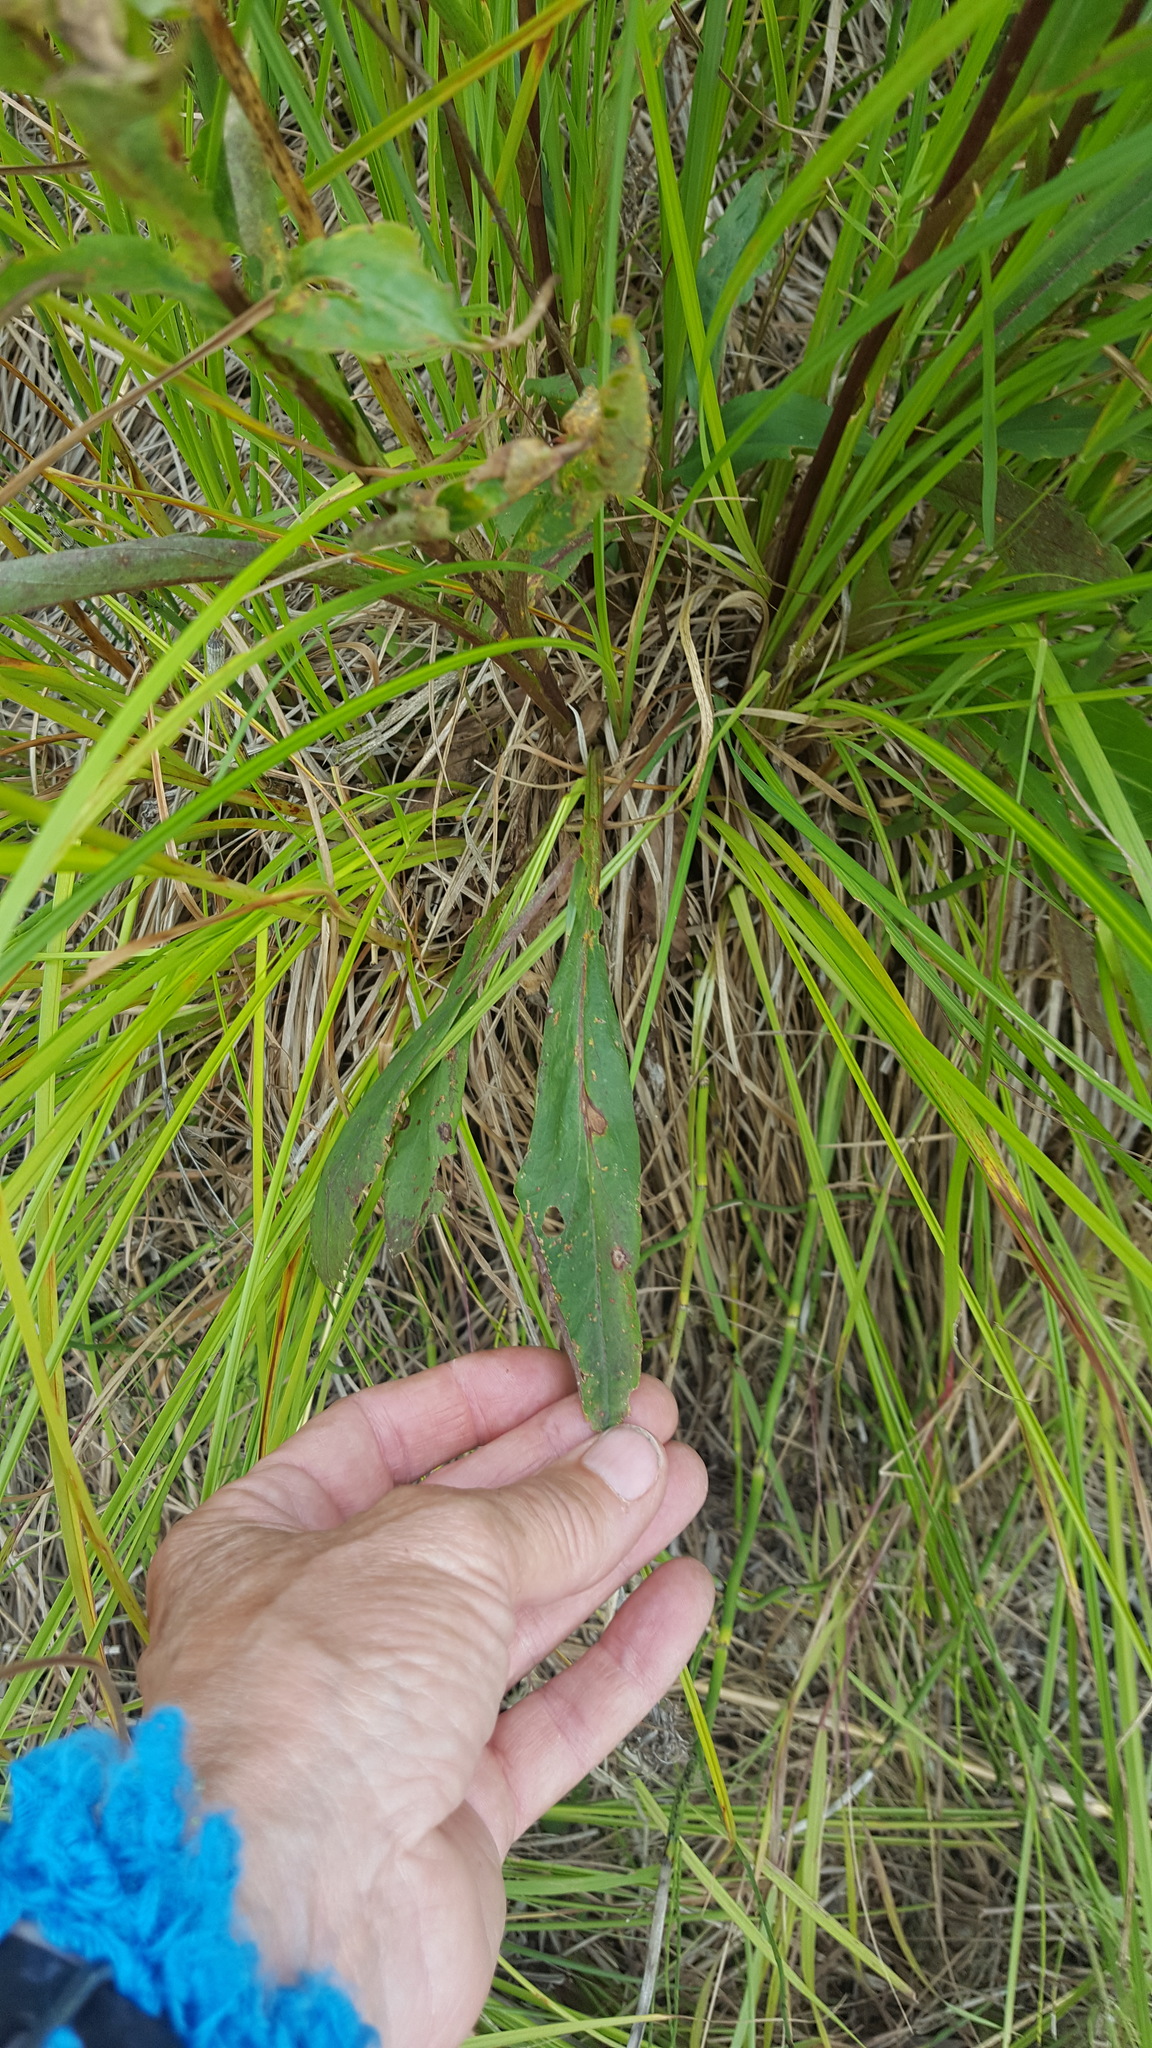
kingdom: Plantae
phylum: Tracheophyta
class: Magnoliopsida
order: Asterales
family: Asteraceae
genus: Solidago
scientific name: Solidago uliginosa
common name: Bog goldenrod
